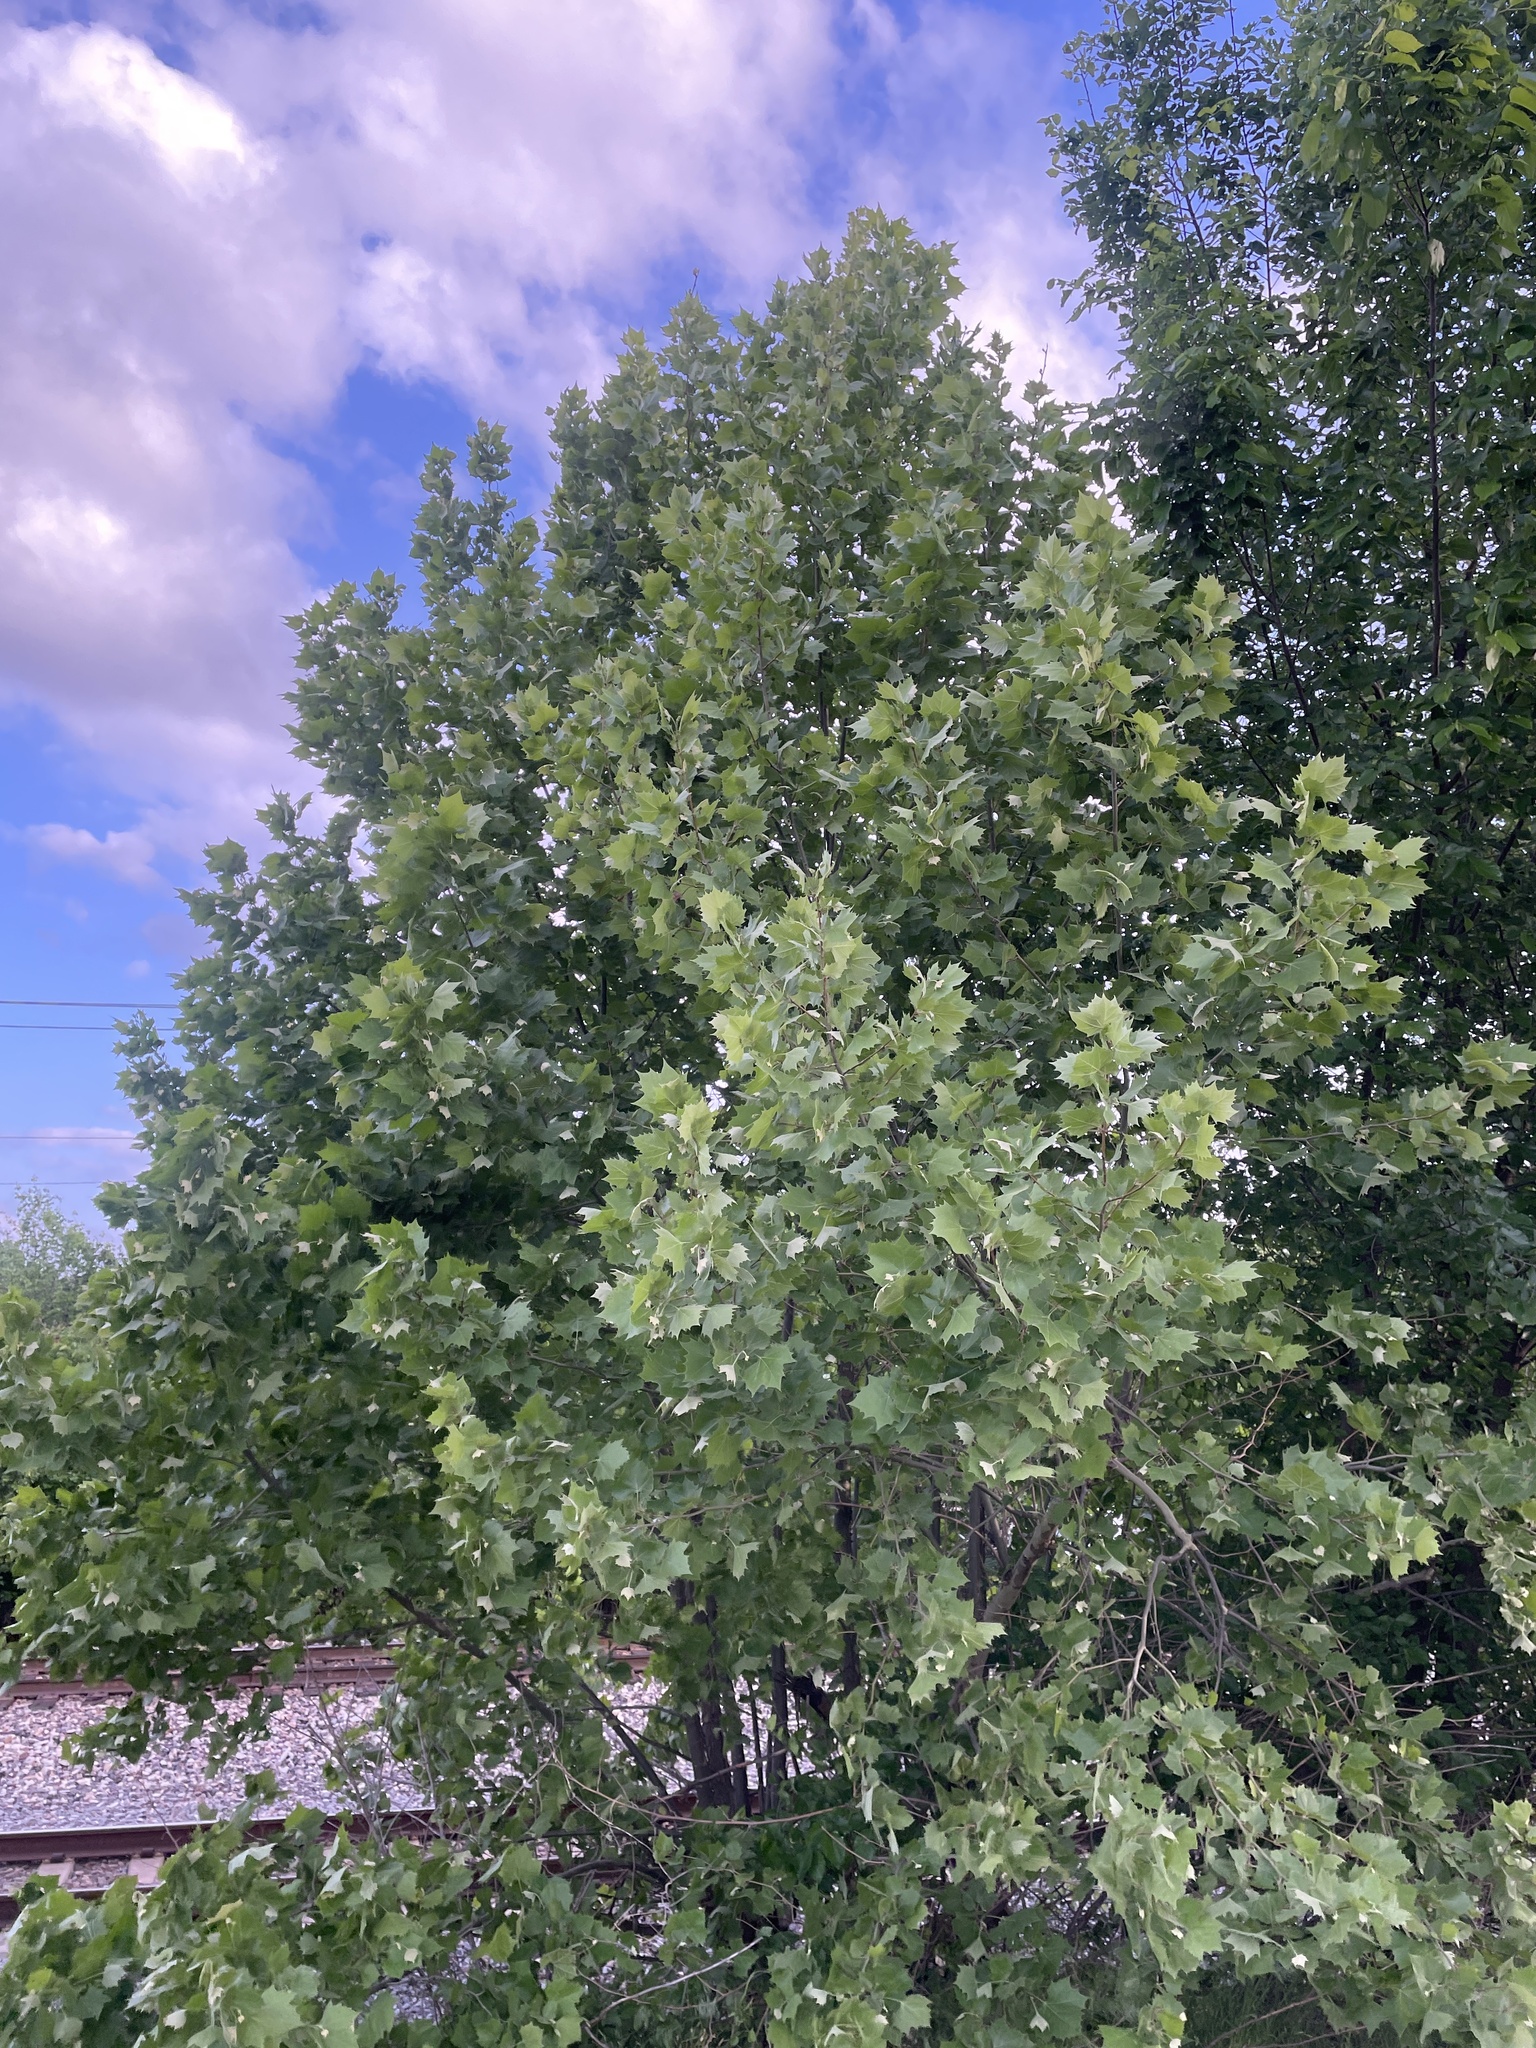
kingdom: Plantae
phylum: Tracheophyta
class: Magnoliopsida
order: Proteales
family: Platanaceae
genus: Platanus
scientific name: Platanus occidentalis
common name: American sycamore
